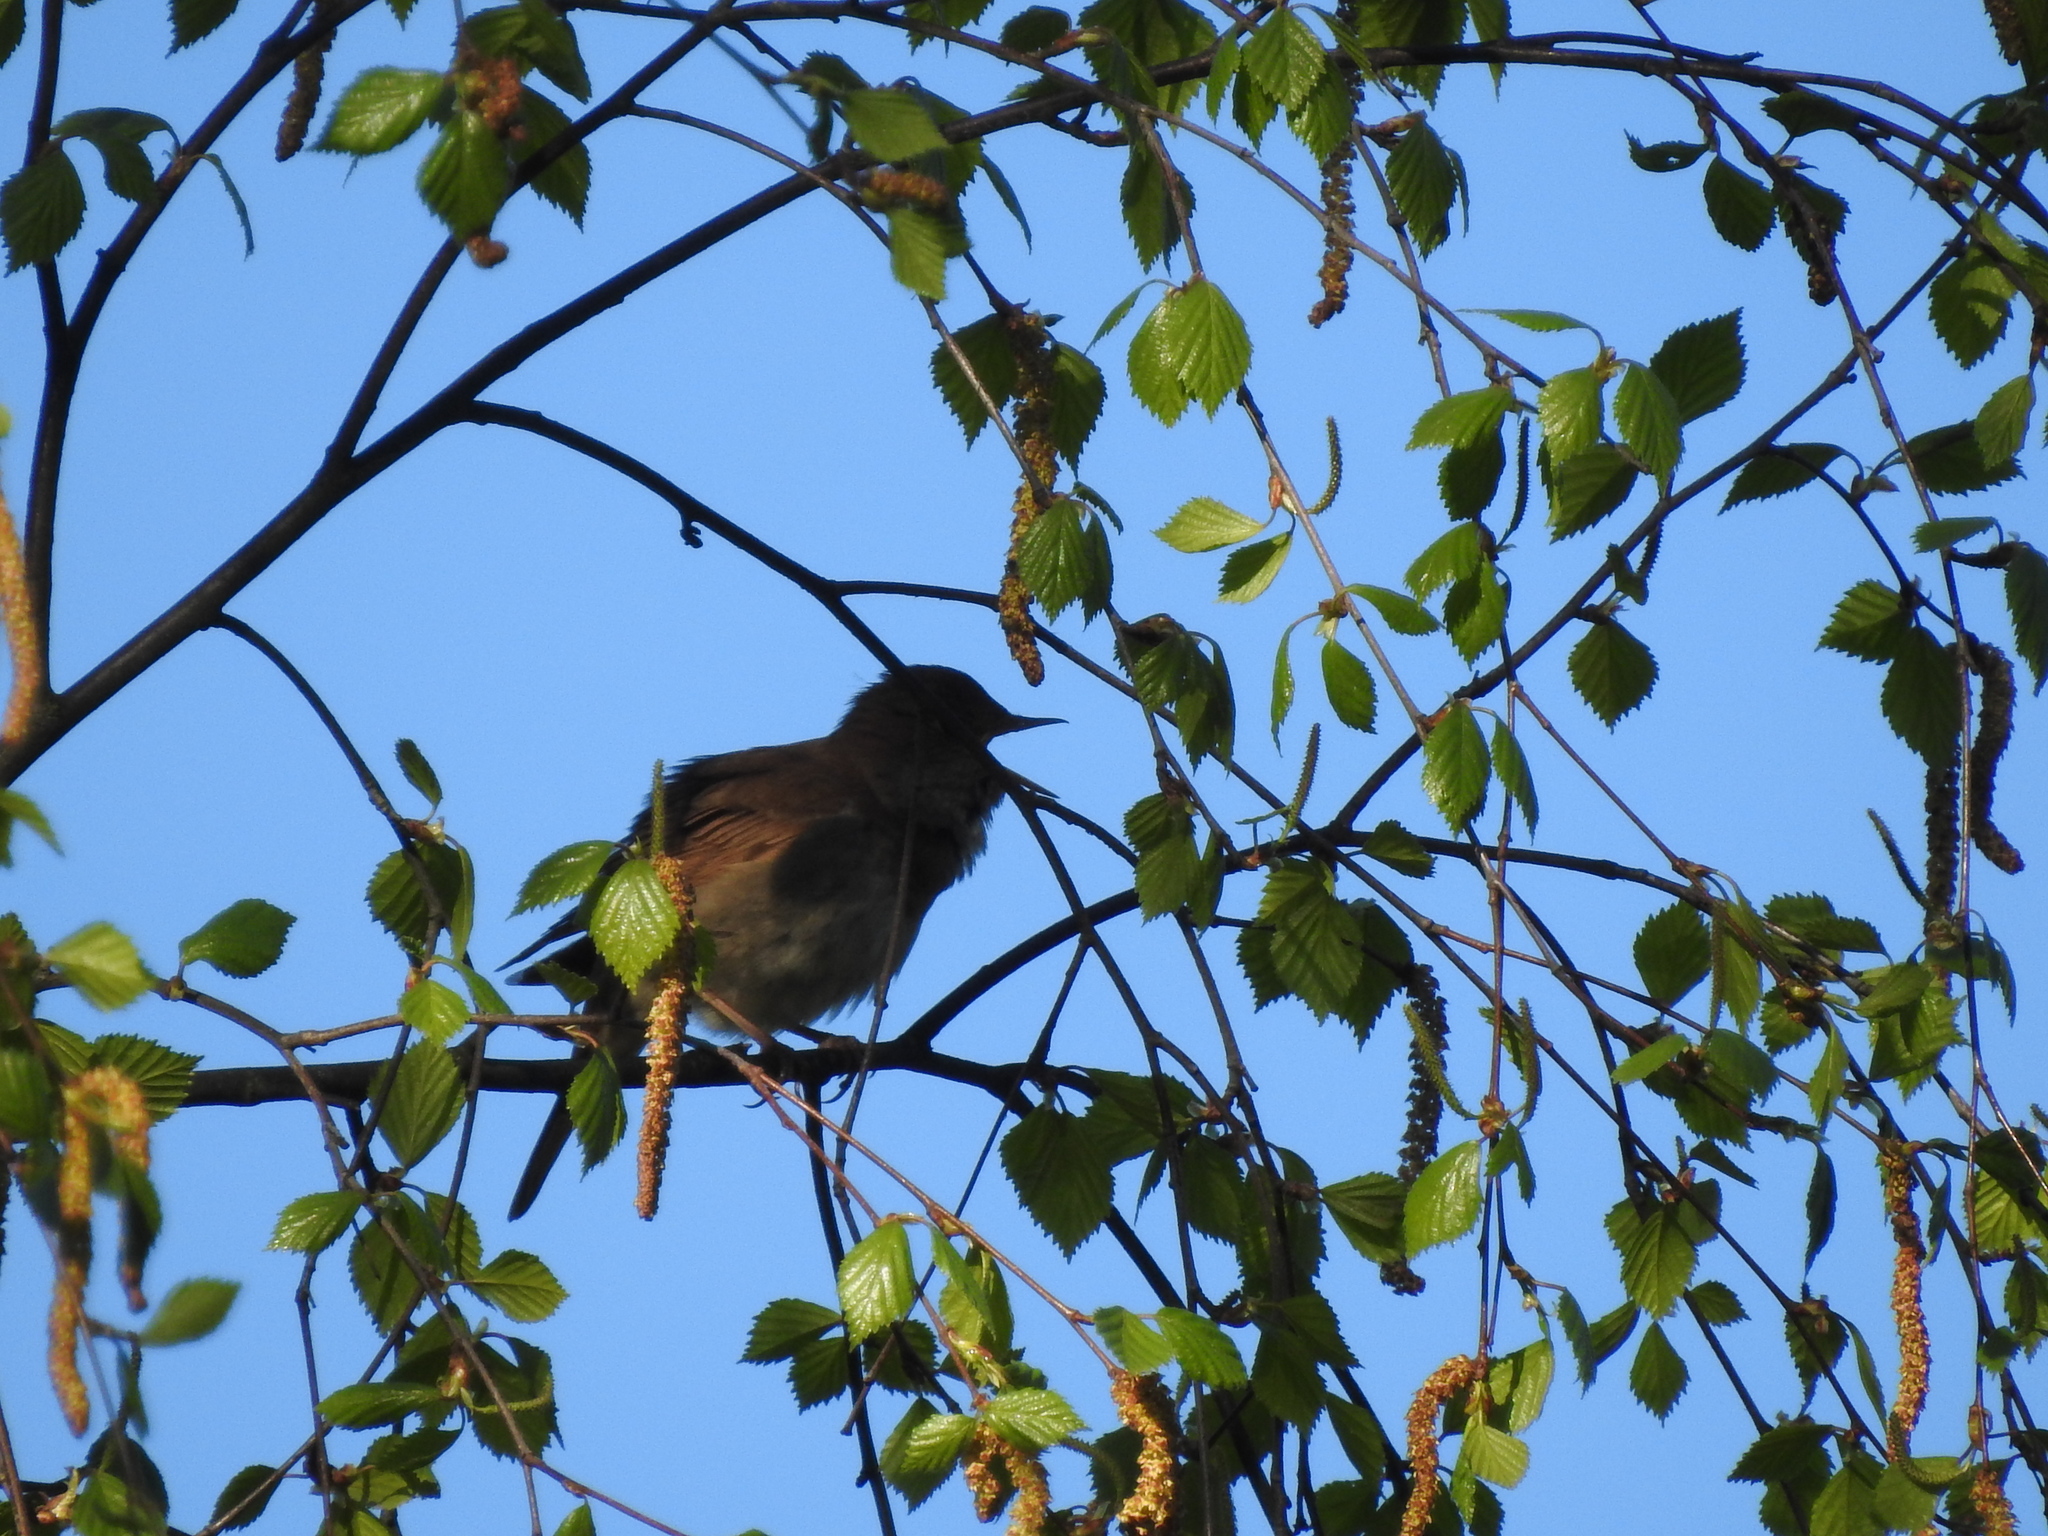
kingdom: Animalia
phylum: Chordata
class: Aves
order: Passeriformes
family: Muscicapidae
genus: Luscinia
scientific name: Luscinia luscinia
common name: Thrush nightingale
